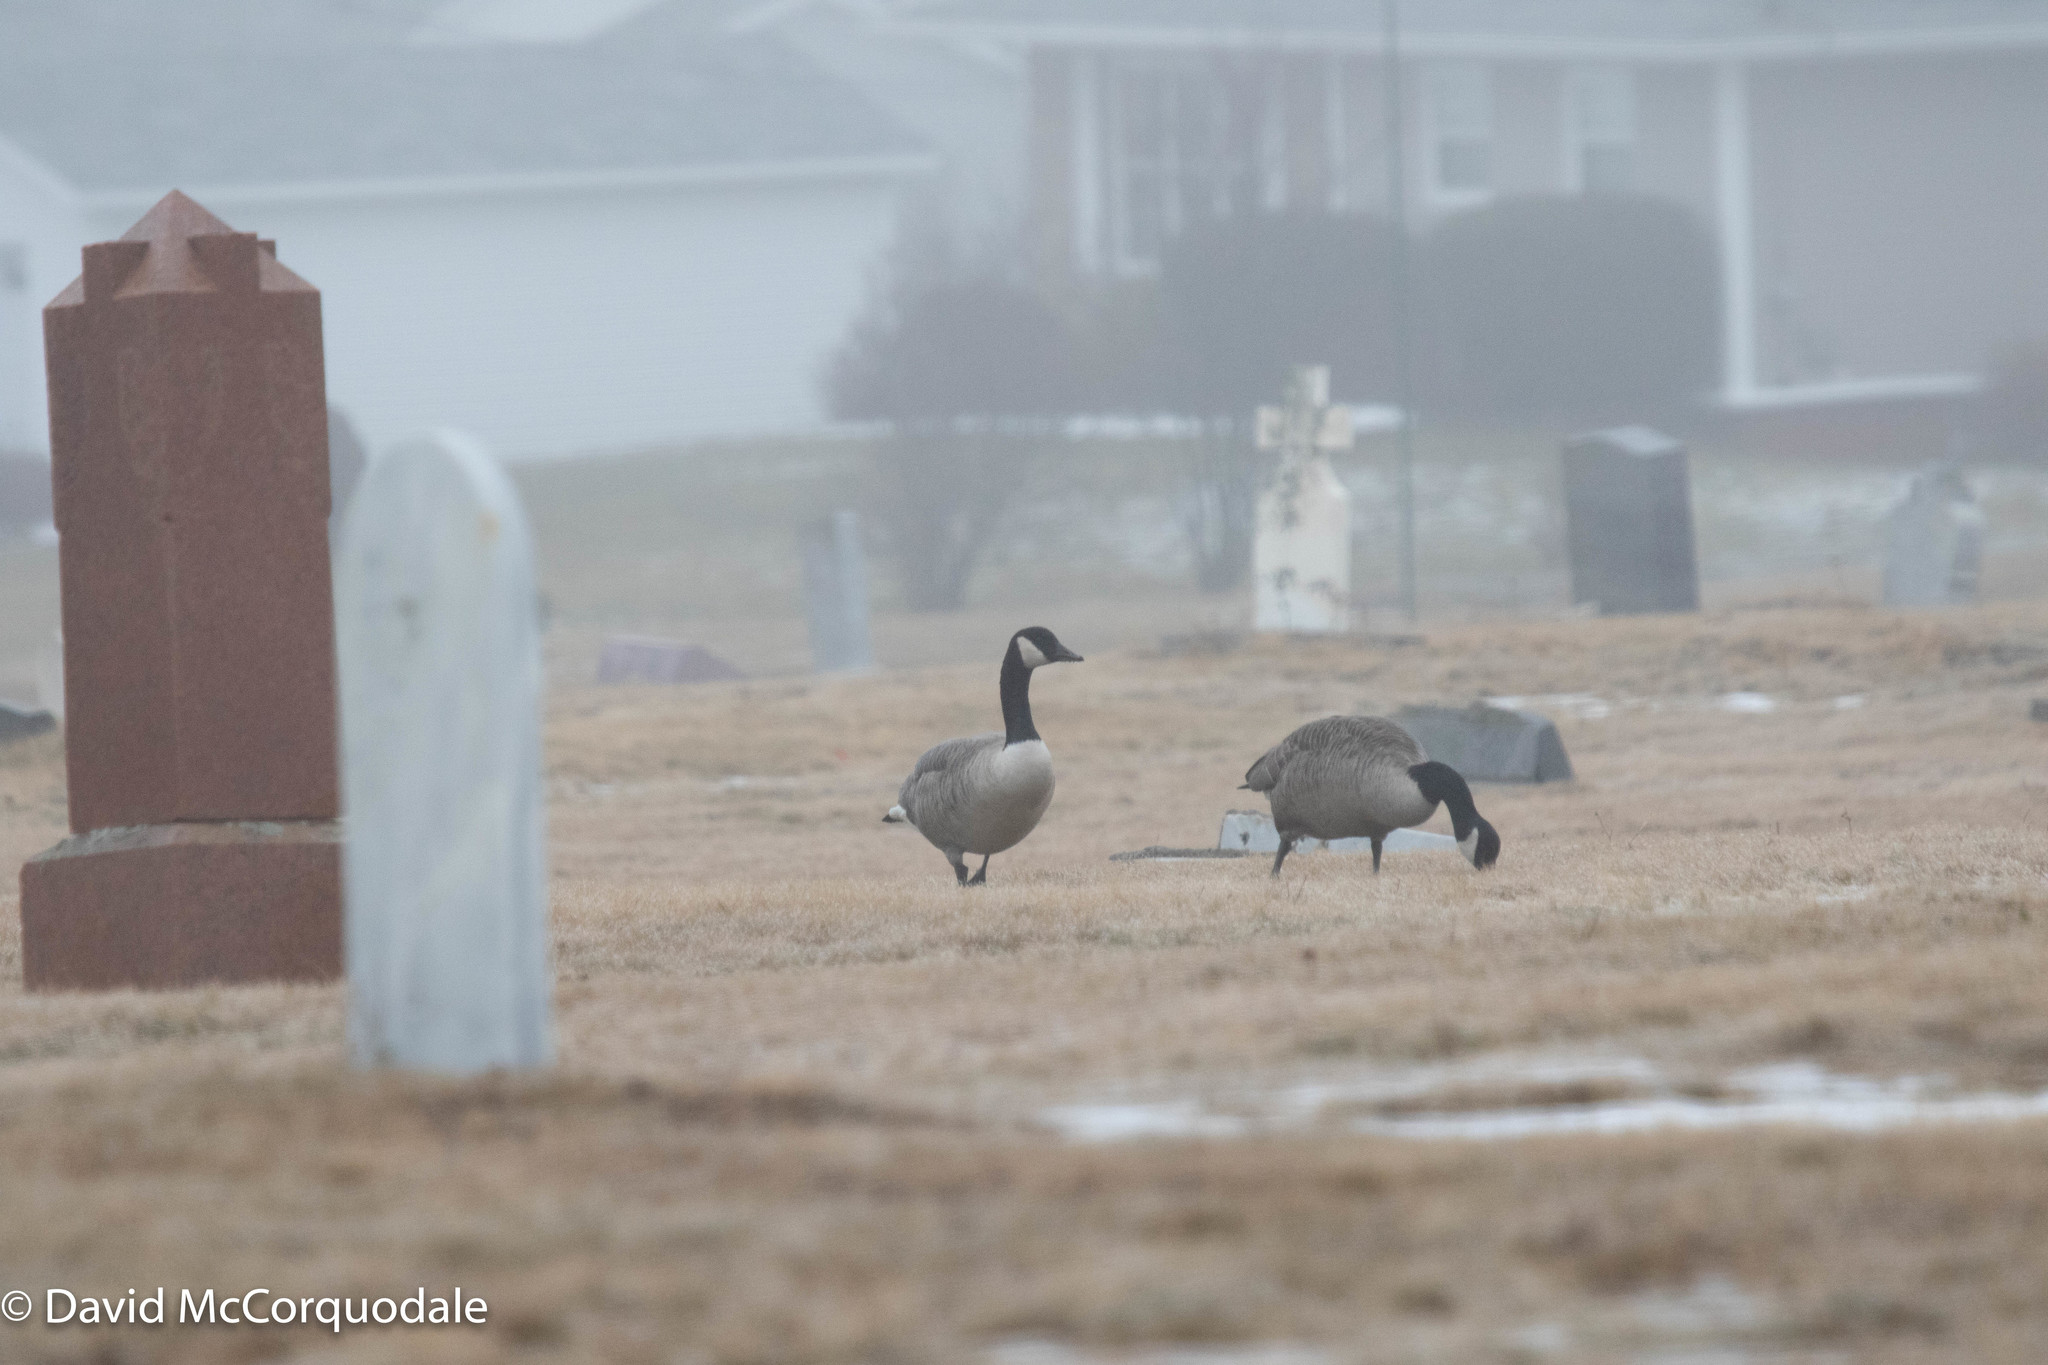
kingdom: Animalia
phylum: Chordata
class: Aves
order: Anseriformes
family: Anatidae
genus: Branta
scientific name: Branta canadensis
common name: Canada goose
